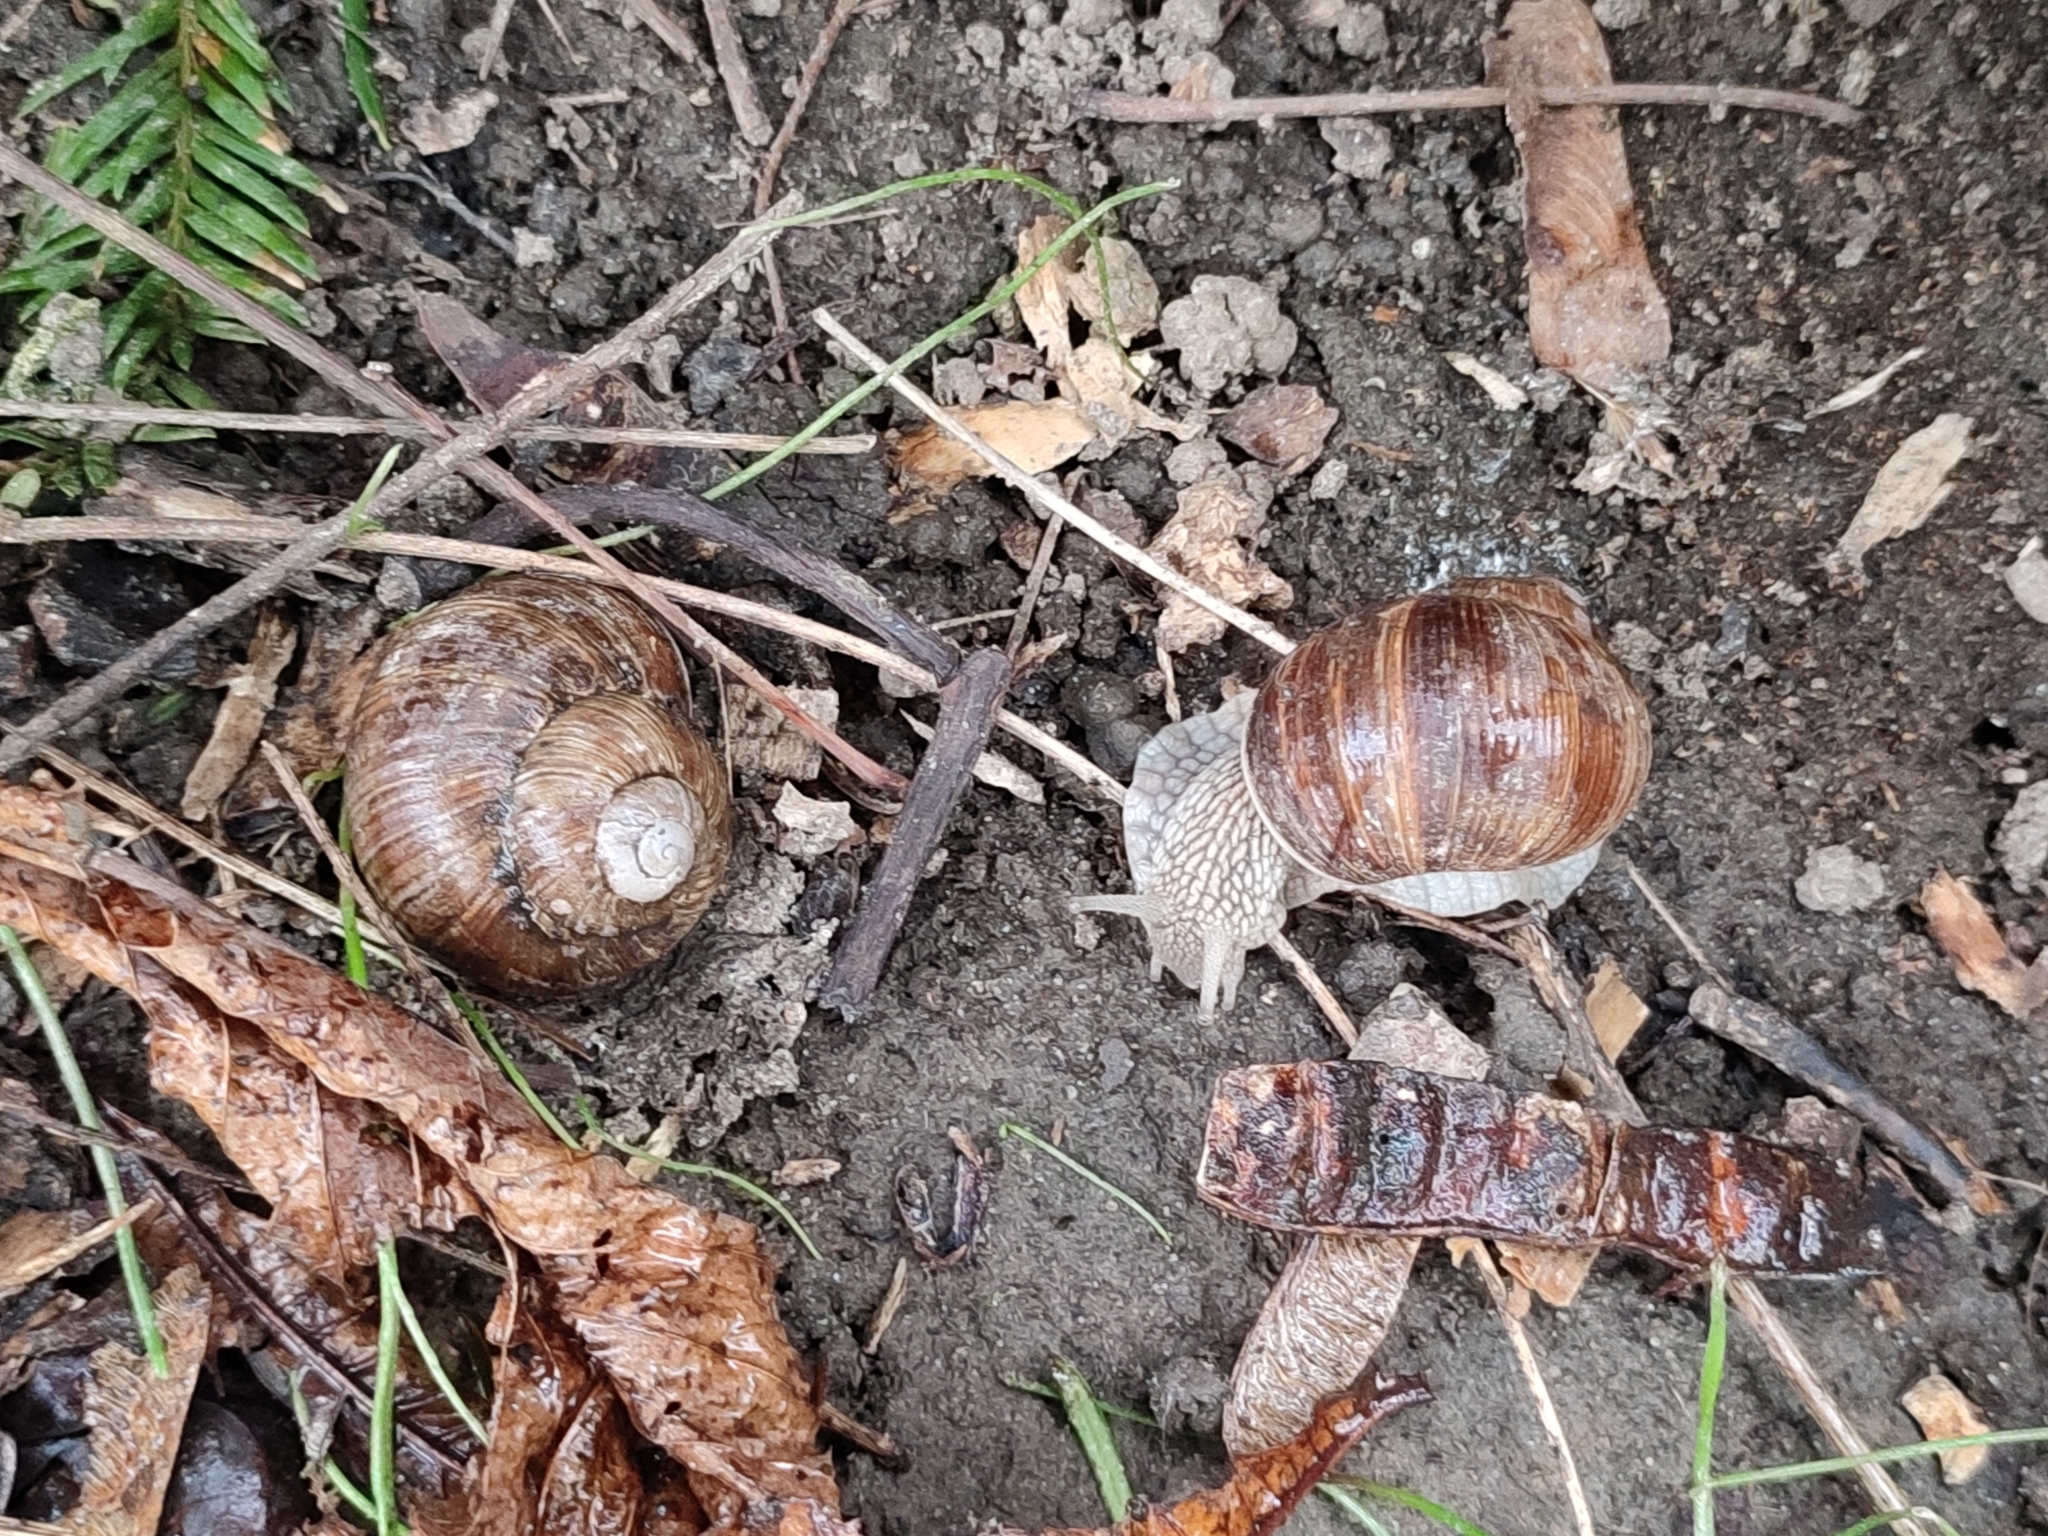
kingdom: Animalia
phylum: Mollusca
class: Gastropoda
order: Stylommatophora
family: Helicidae
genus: Helix
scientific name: Helix pomatia
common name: Roman snail
